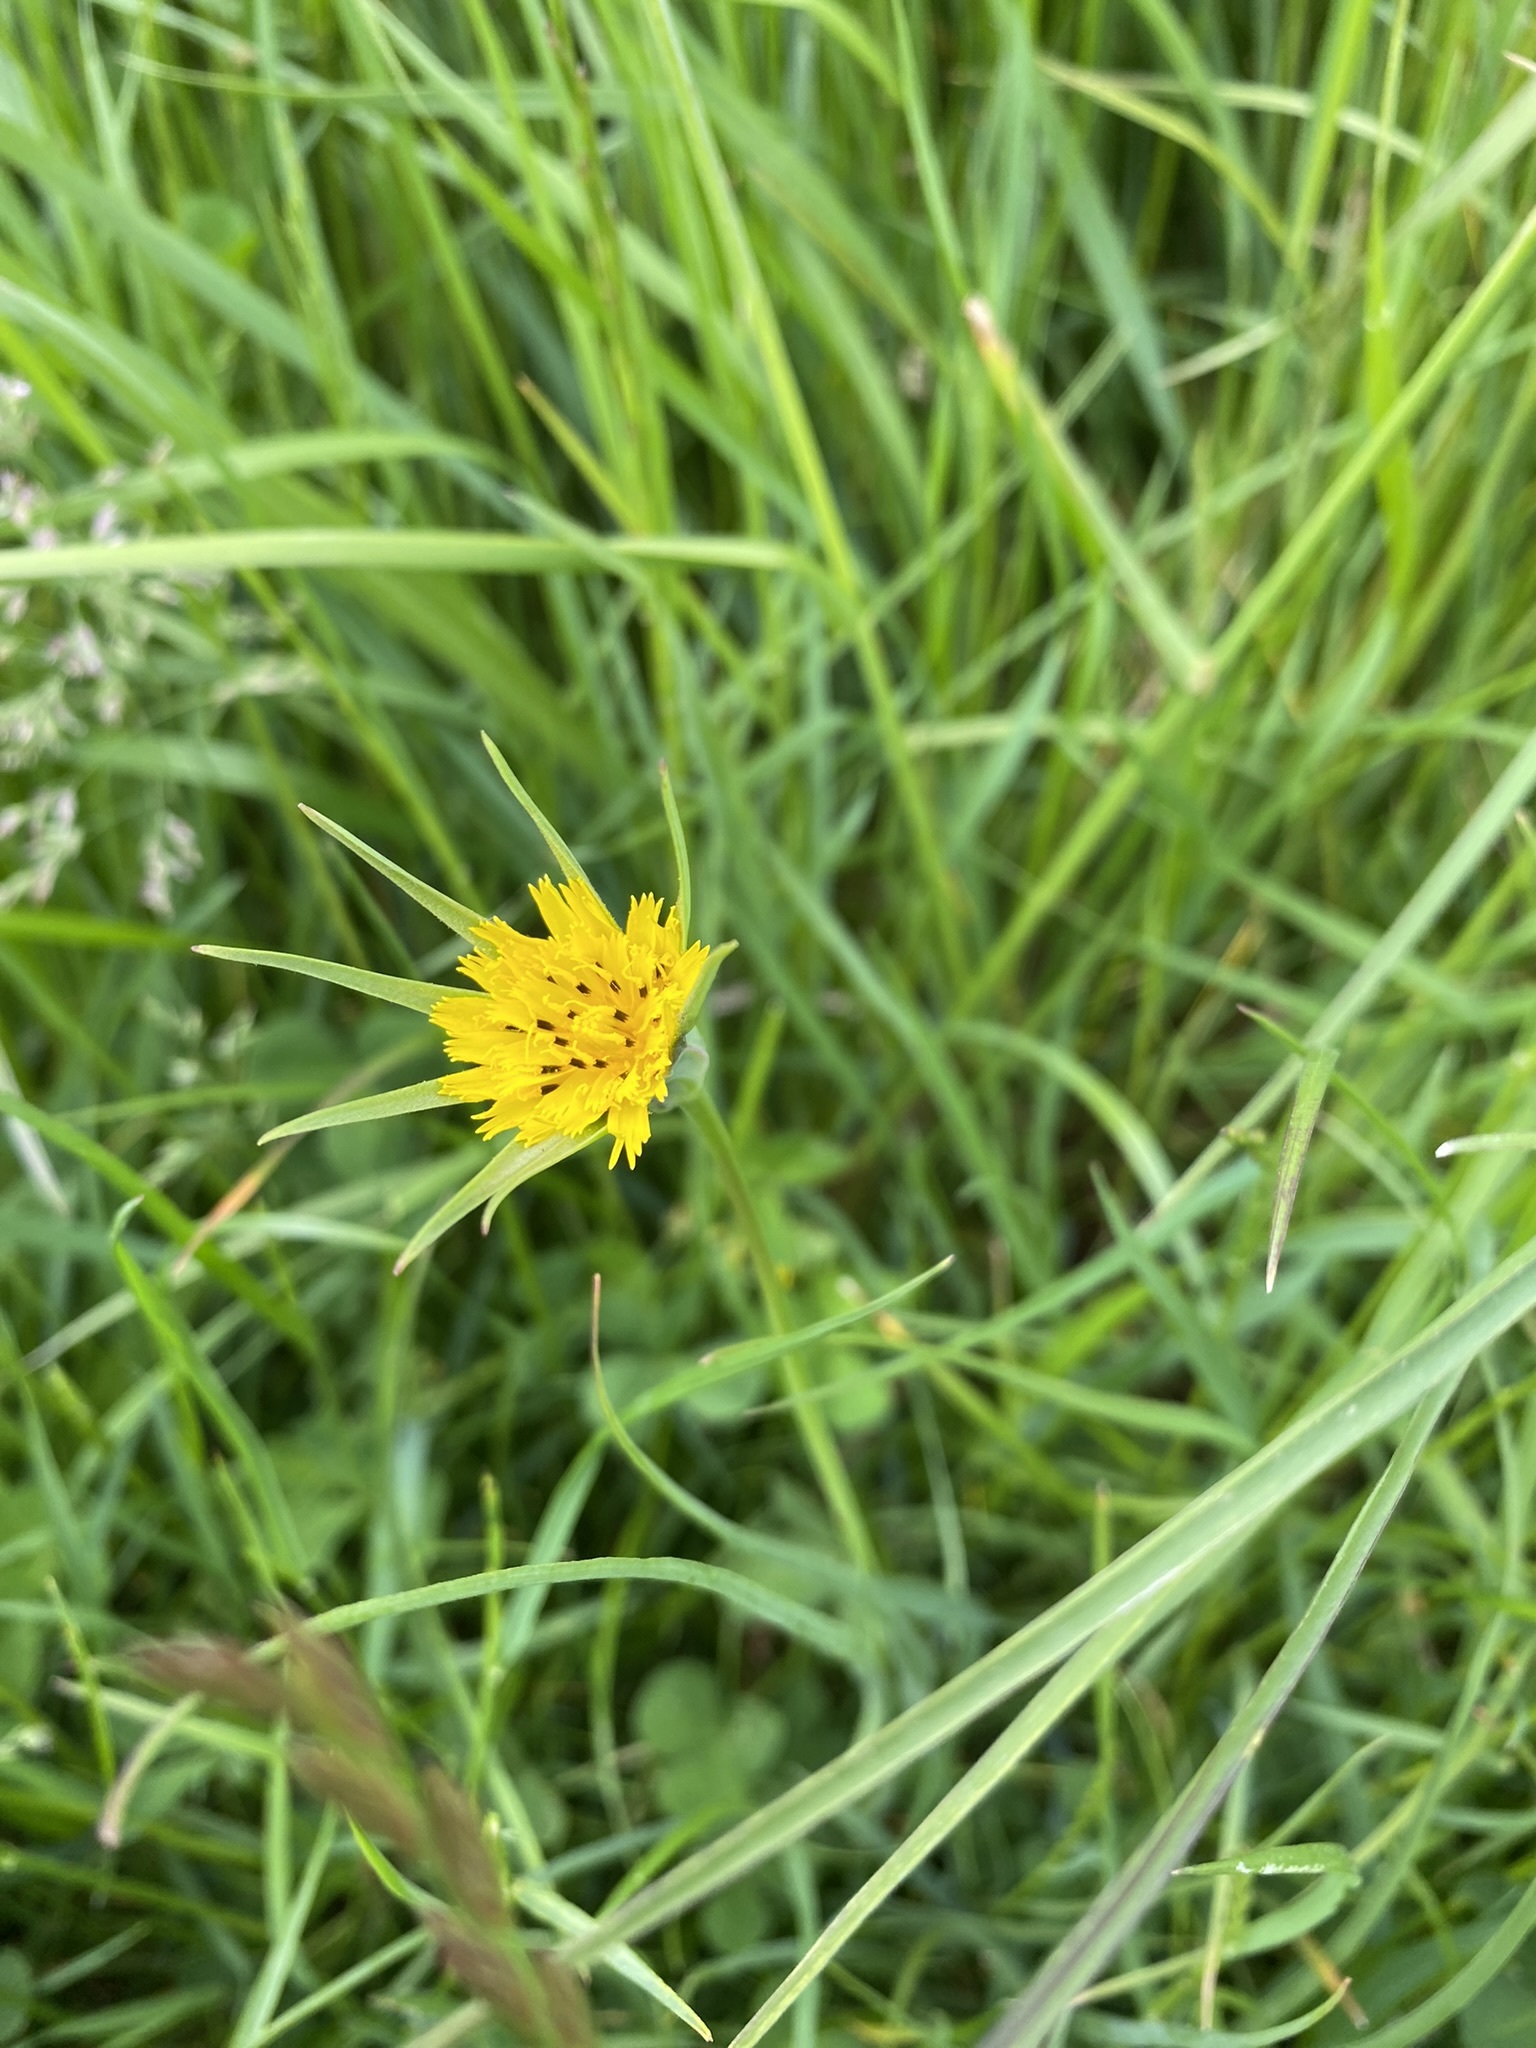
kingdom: Plantae
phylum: Tracheophyta
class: Magnoliopsida
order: Asterales
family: Asteraceae
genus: Tragopogon
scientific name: Tragopogon minor
